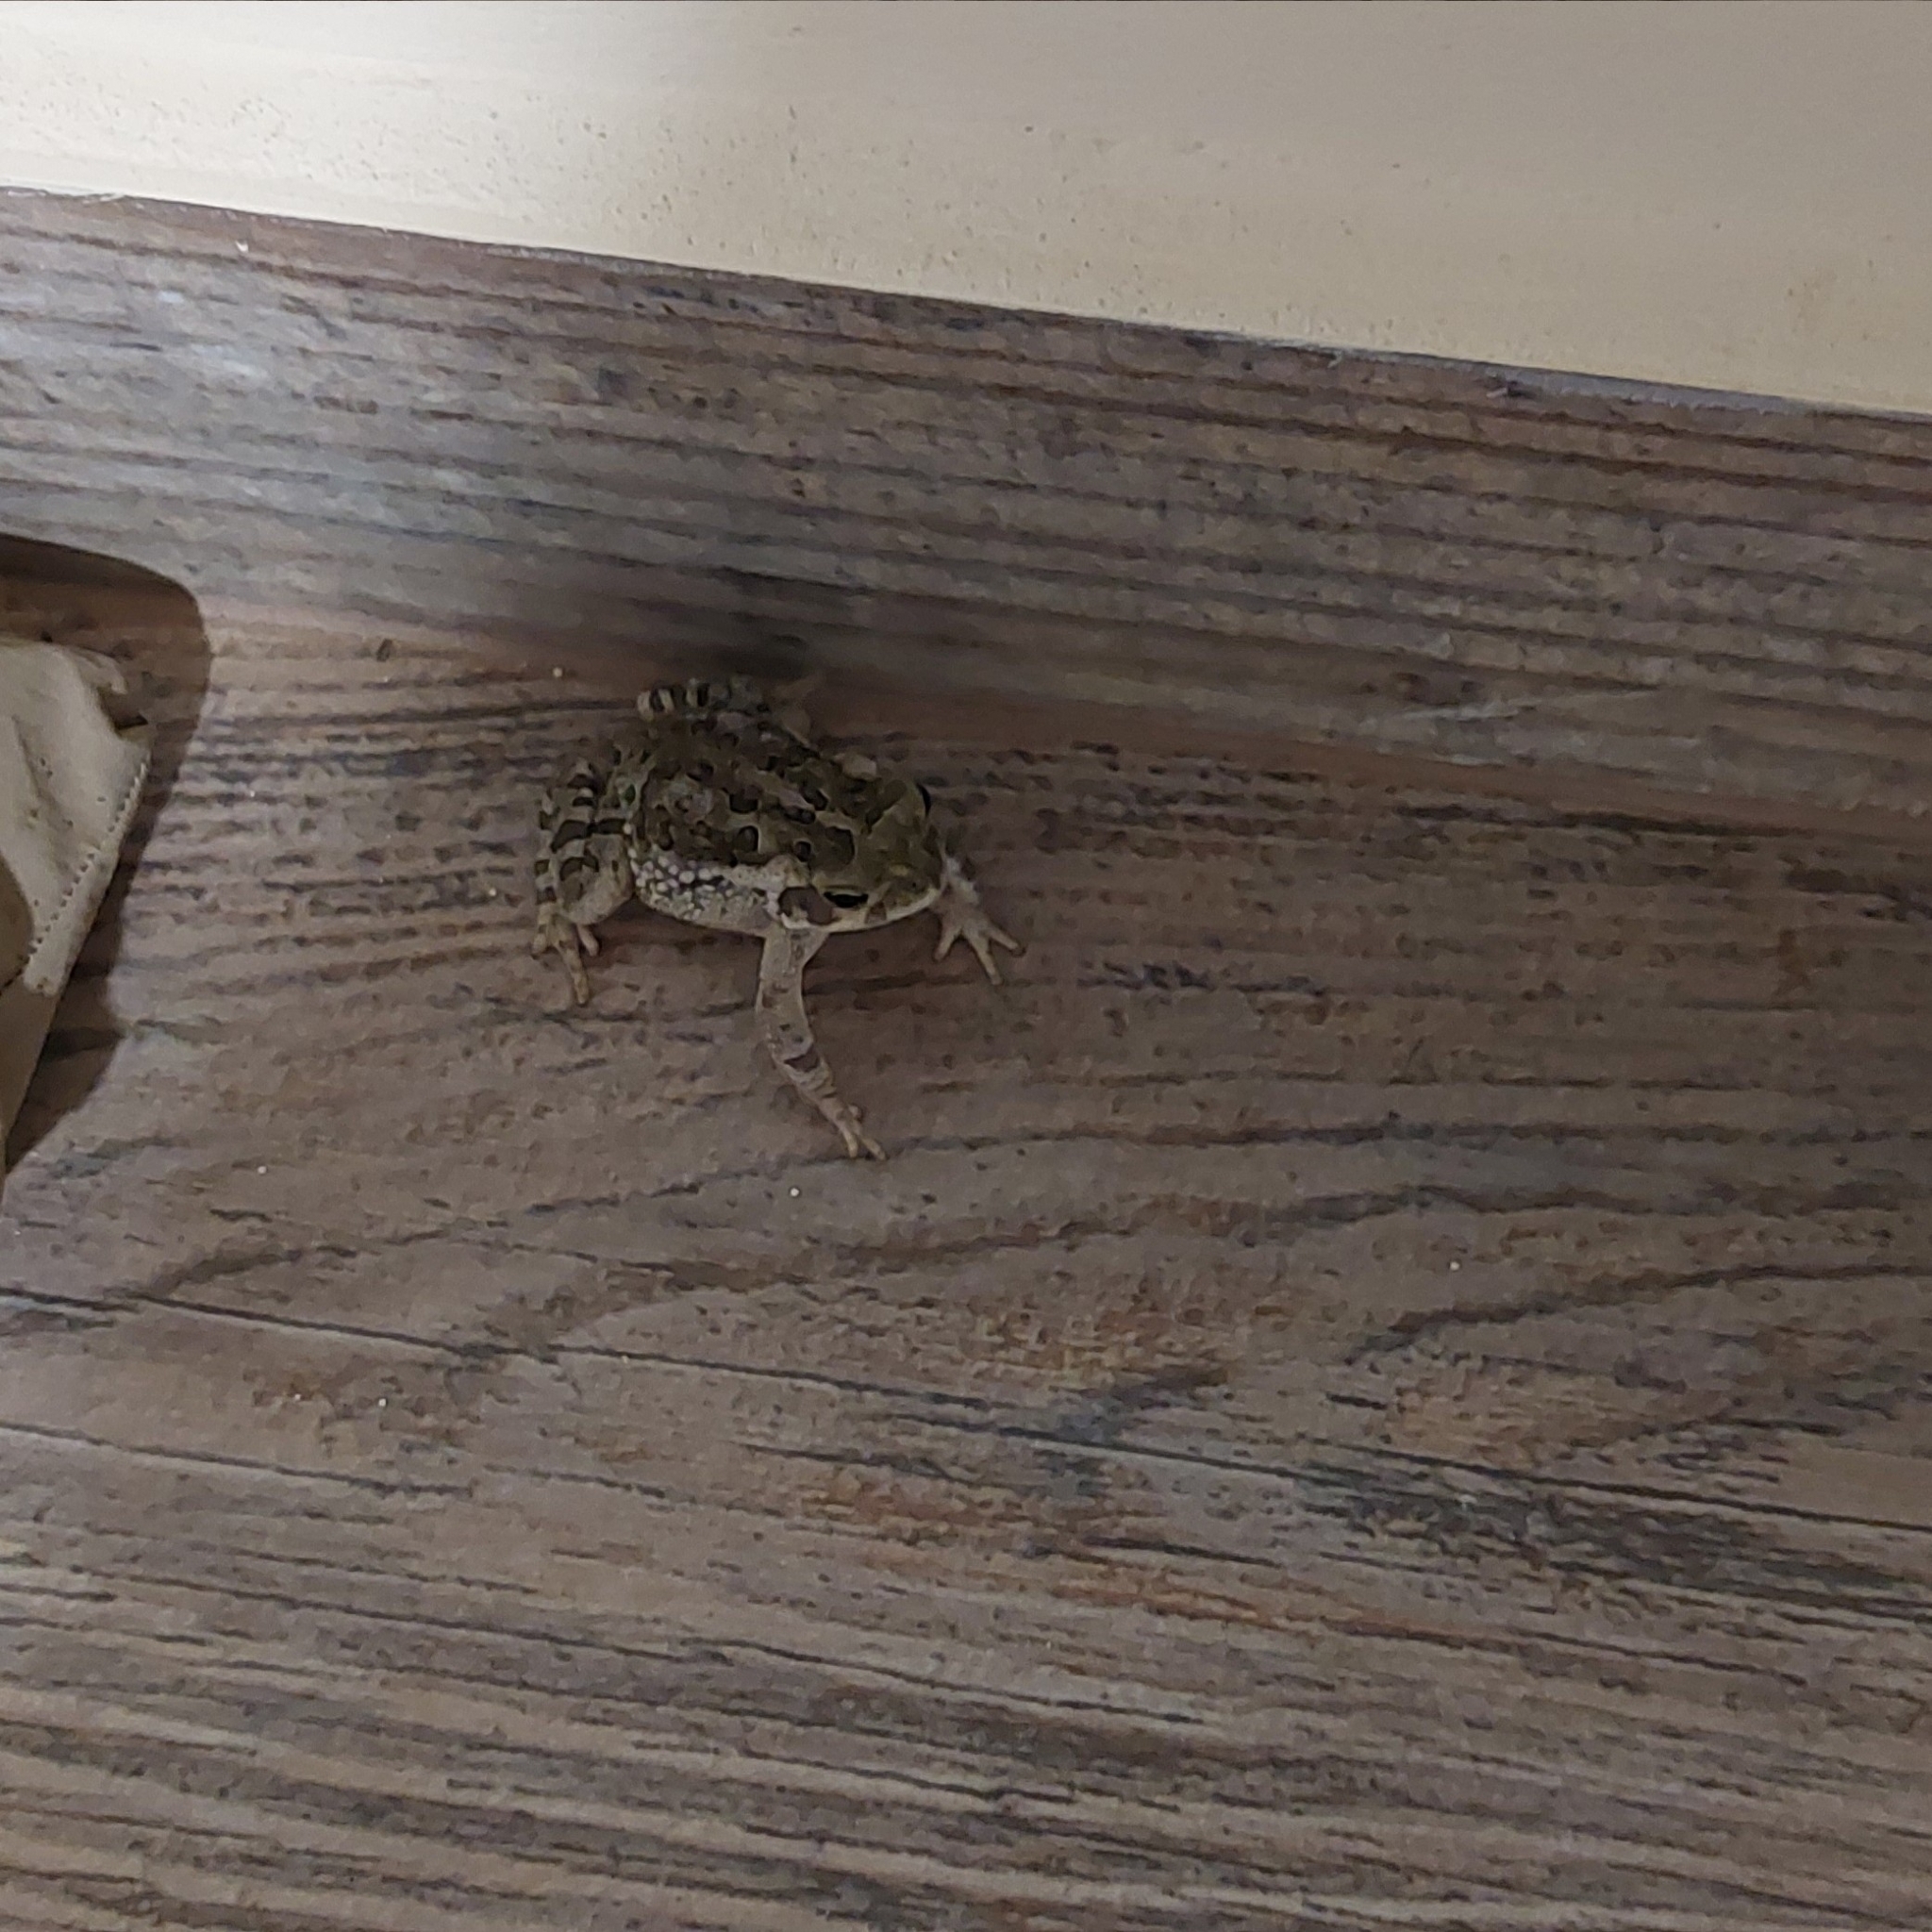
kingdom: Animalia
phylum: Chordata
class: Amphibia
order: Anura
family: Bufonidae
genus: Rhinella
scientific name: Rhinella arenarum
